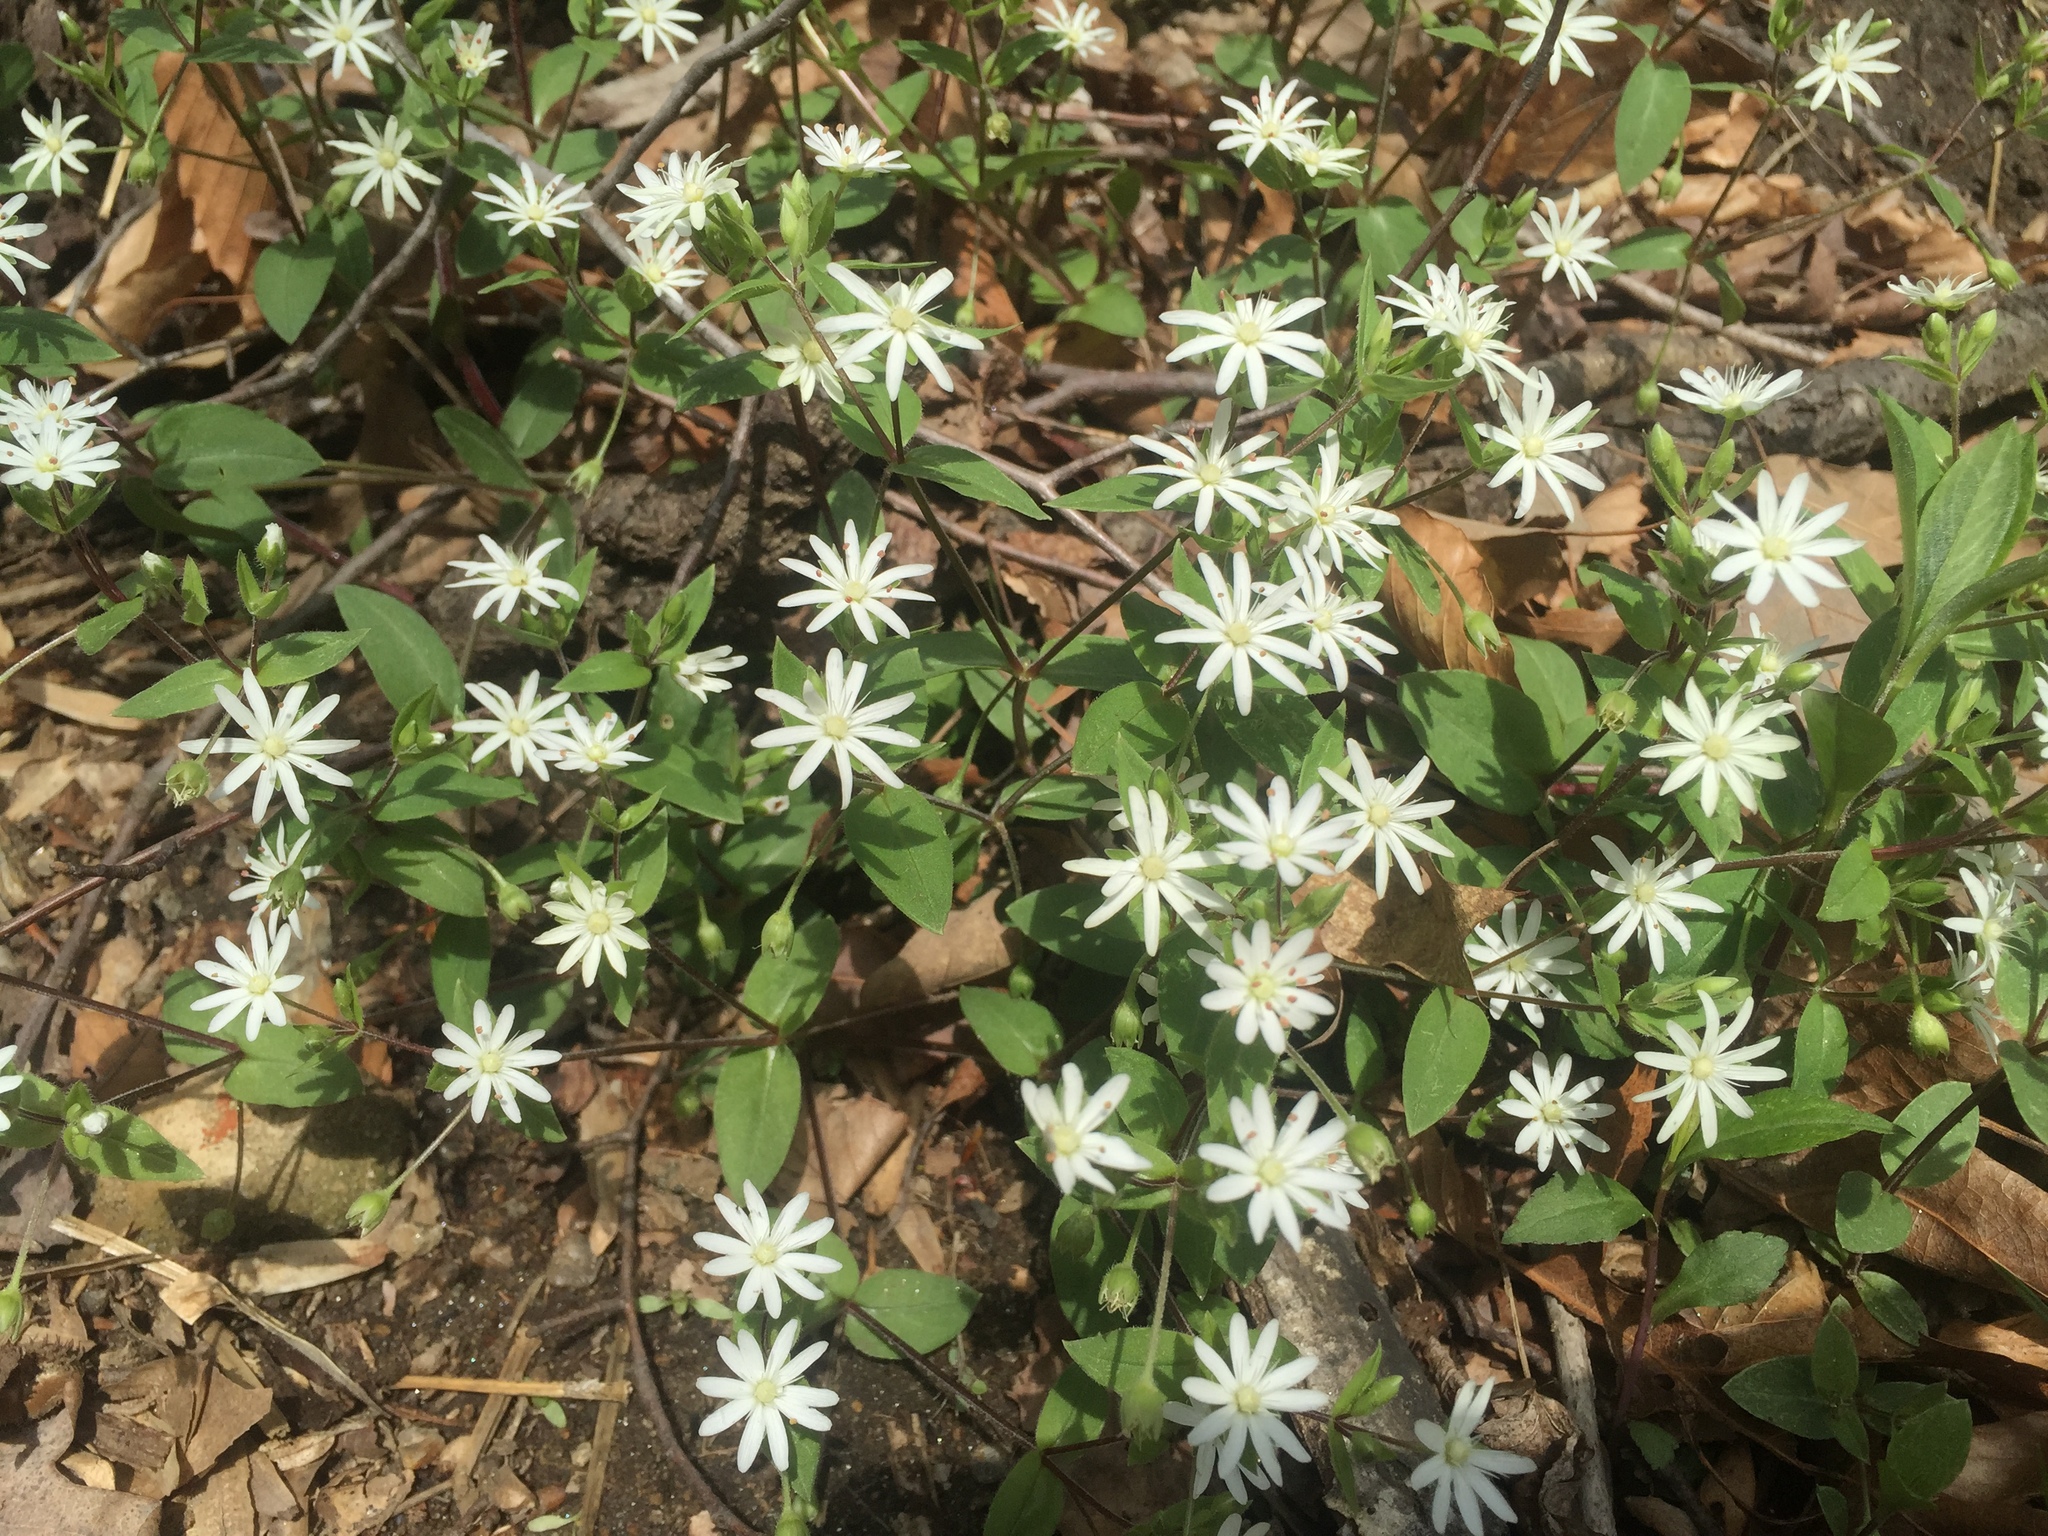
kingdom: Plantae
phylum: Tracheophyta
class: Magnoliopsida
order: Caryophyllales
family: Caryophyllaceae
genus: Stellaria
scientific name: Stellaria pubera
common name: Star chickweed
